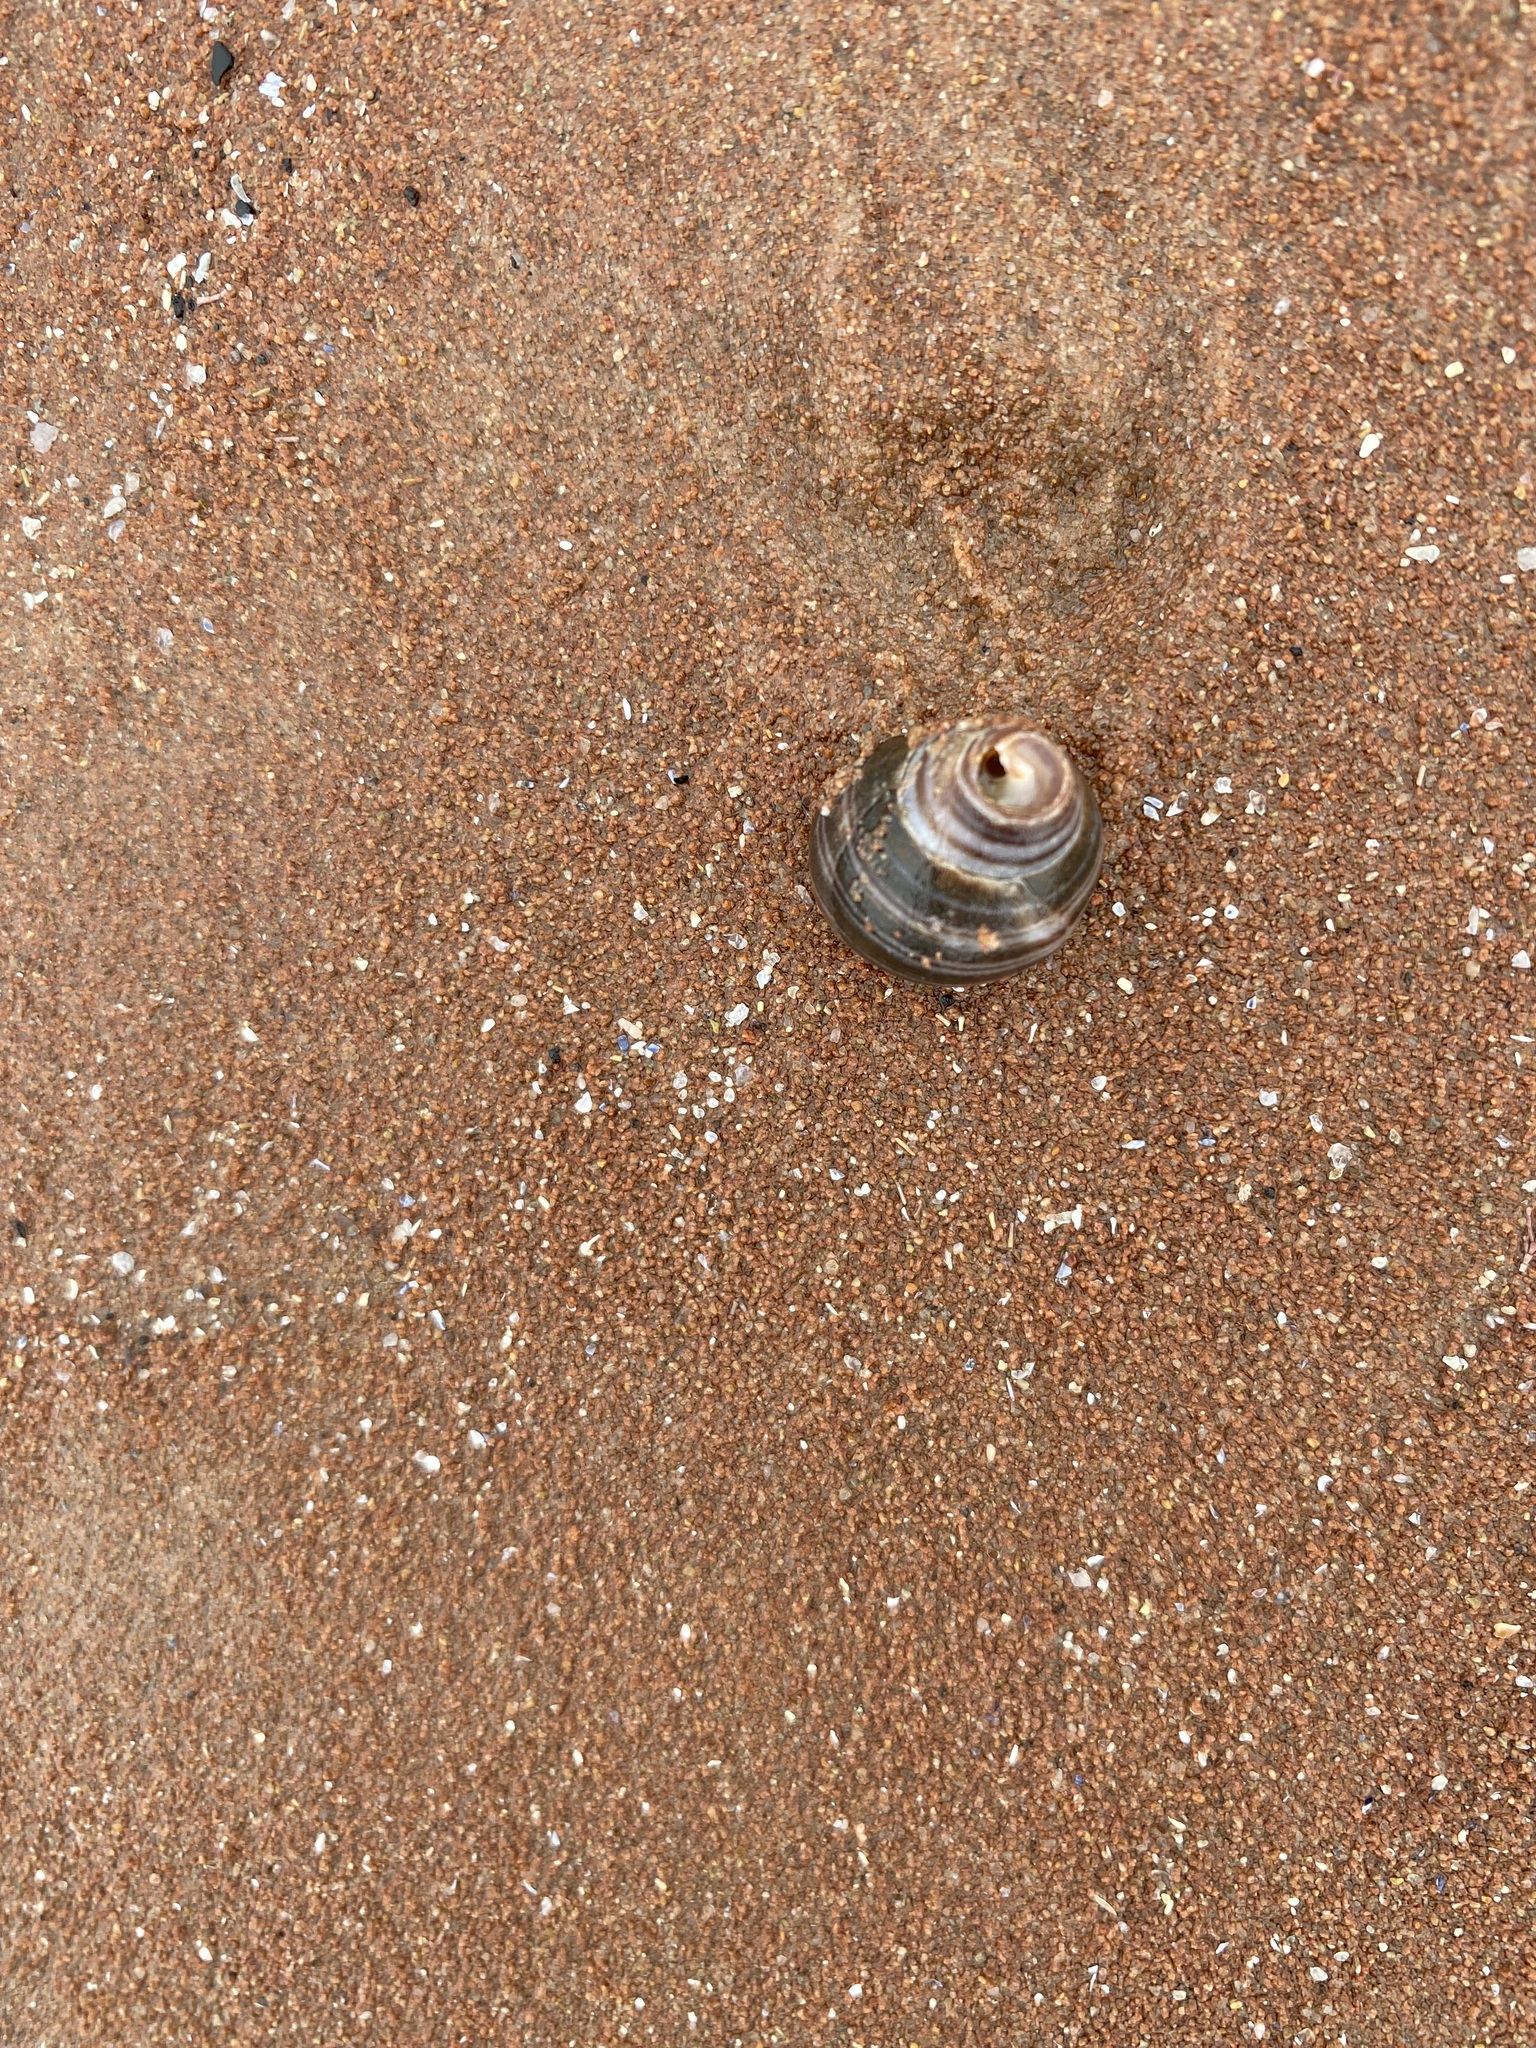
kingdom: Animalia
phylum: Mollusca
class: Gastropoda
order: Littorinimorpha
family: Littorinidae
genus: Littorina
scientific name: Littorina littorea
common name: Common periwinkle
